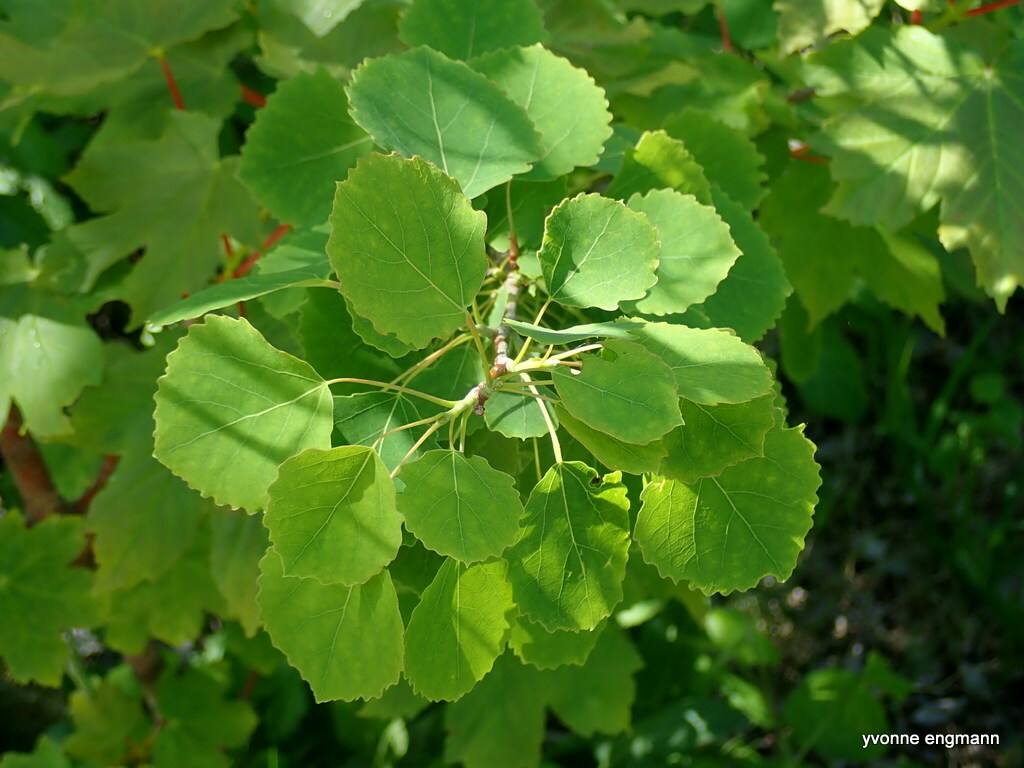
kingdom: Plantae
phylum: Tracheophyta
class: Magnoliopsida
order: Malpighiales
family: Salicaceae
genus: Populus
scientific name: Populus tremula
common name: European aspen
